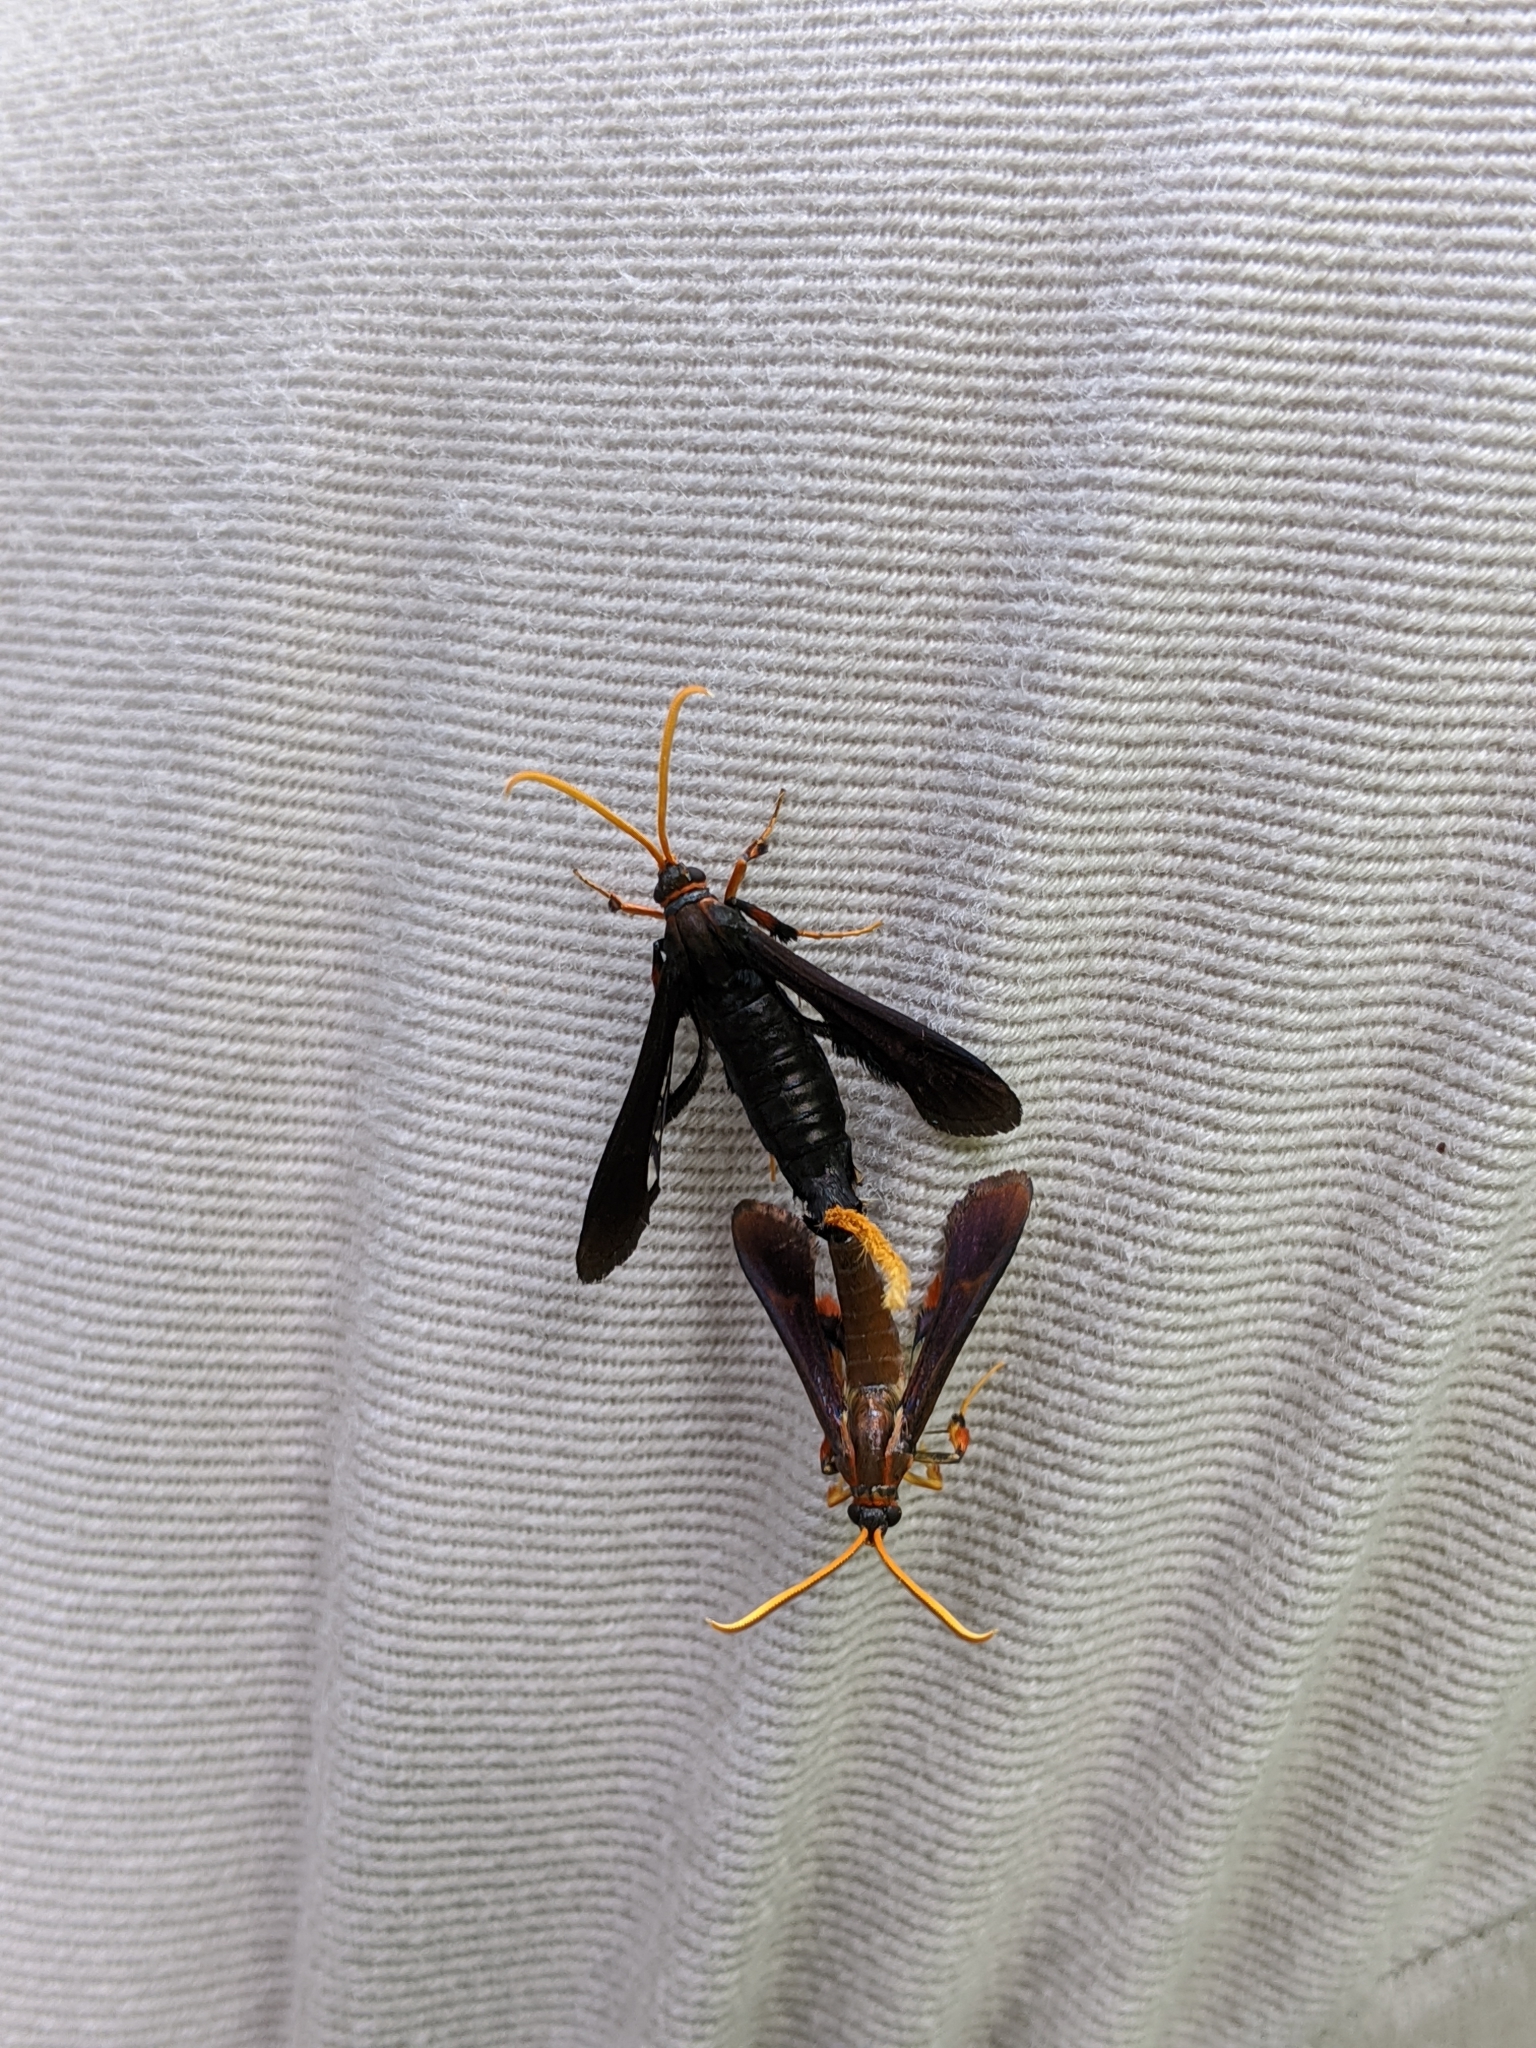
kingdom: Animalia
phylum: Arthropoda
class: Insecta
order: Lepidoptera
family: Sesiidae
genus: Alcathoe
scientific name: Alcathoe caudata
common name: Clematis clearwing moth
